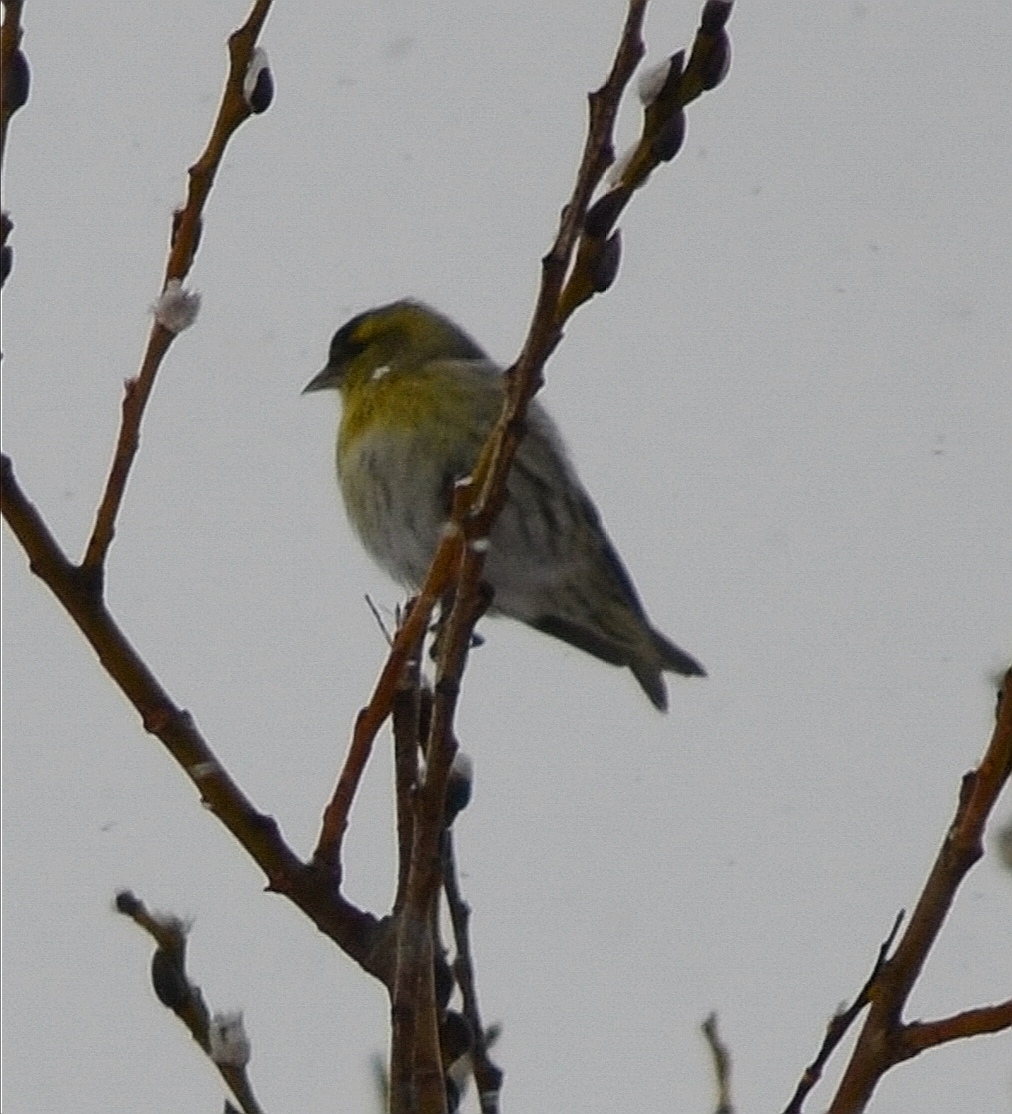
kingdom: Animalia
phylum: Chordata
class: Aves
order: Passeriformes
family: Fringillidae
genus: Spinus
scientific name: Spinus spinus
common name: Eurasian siskin
